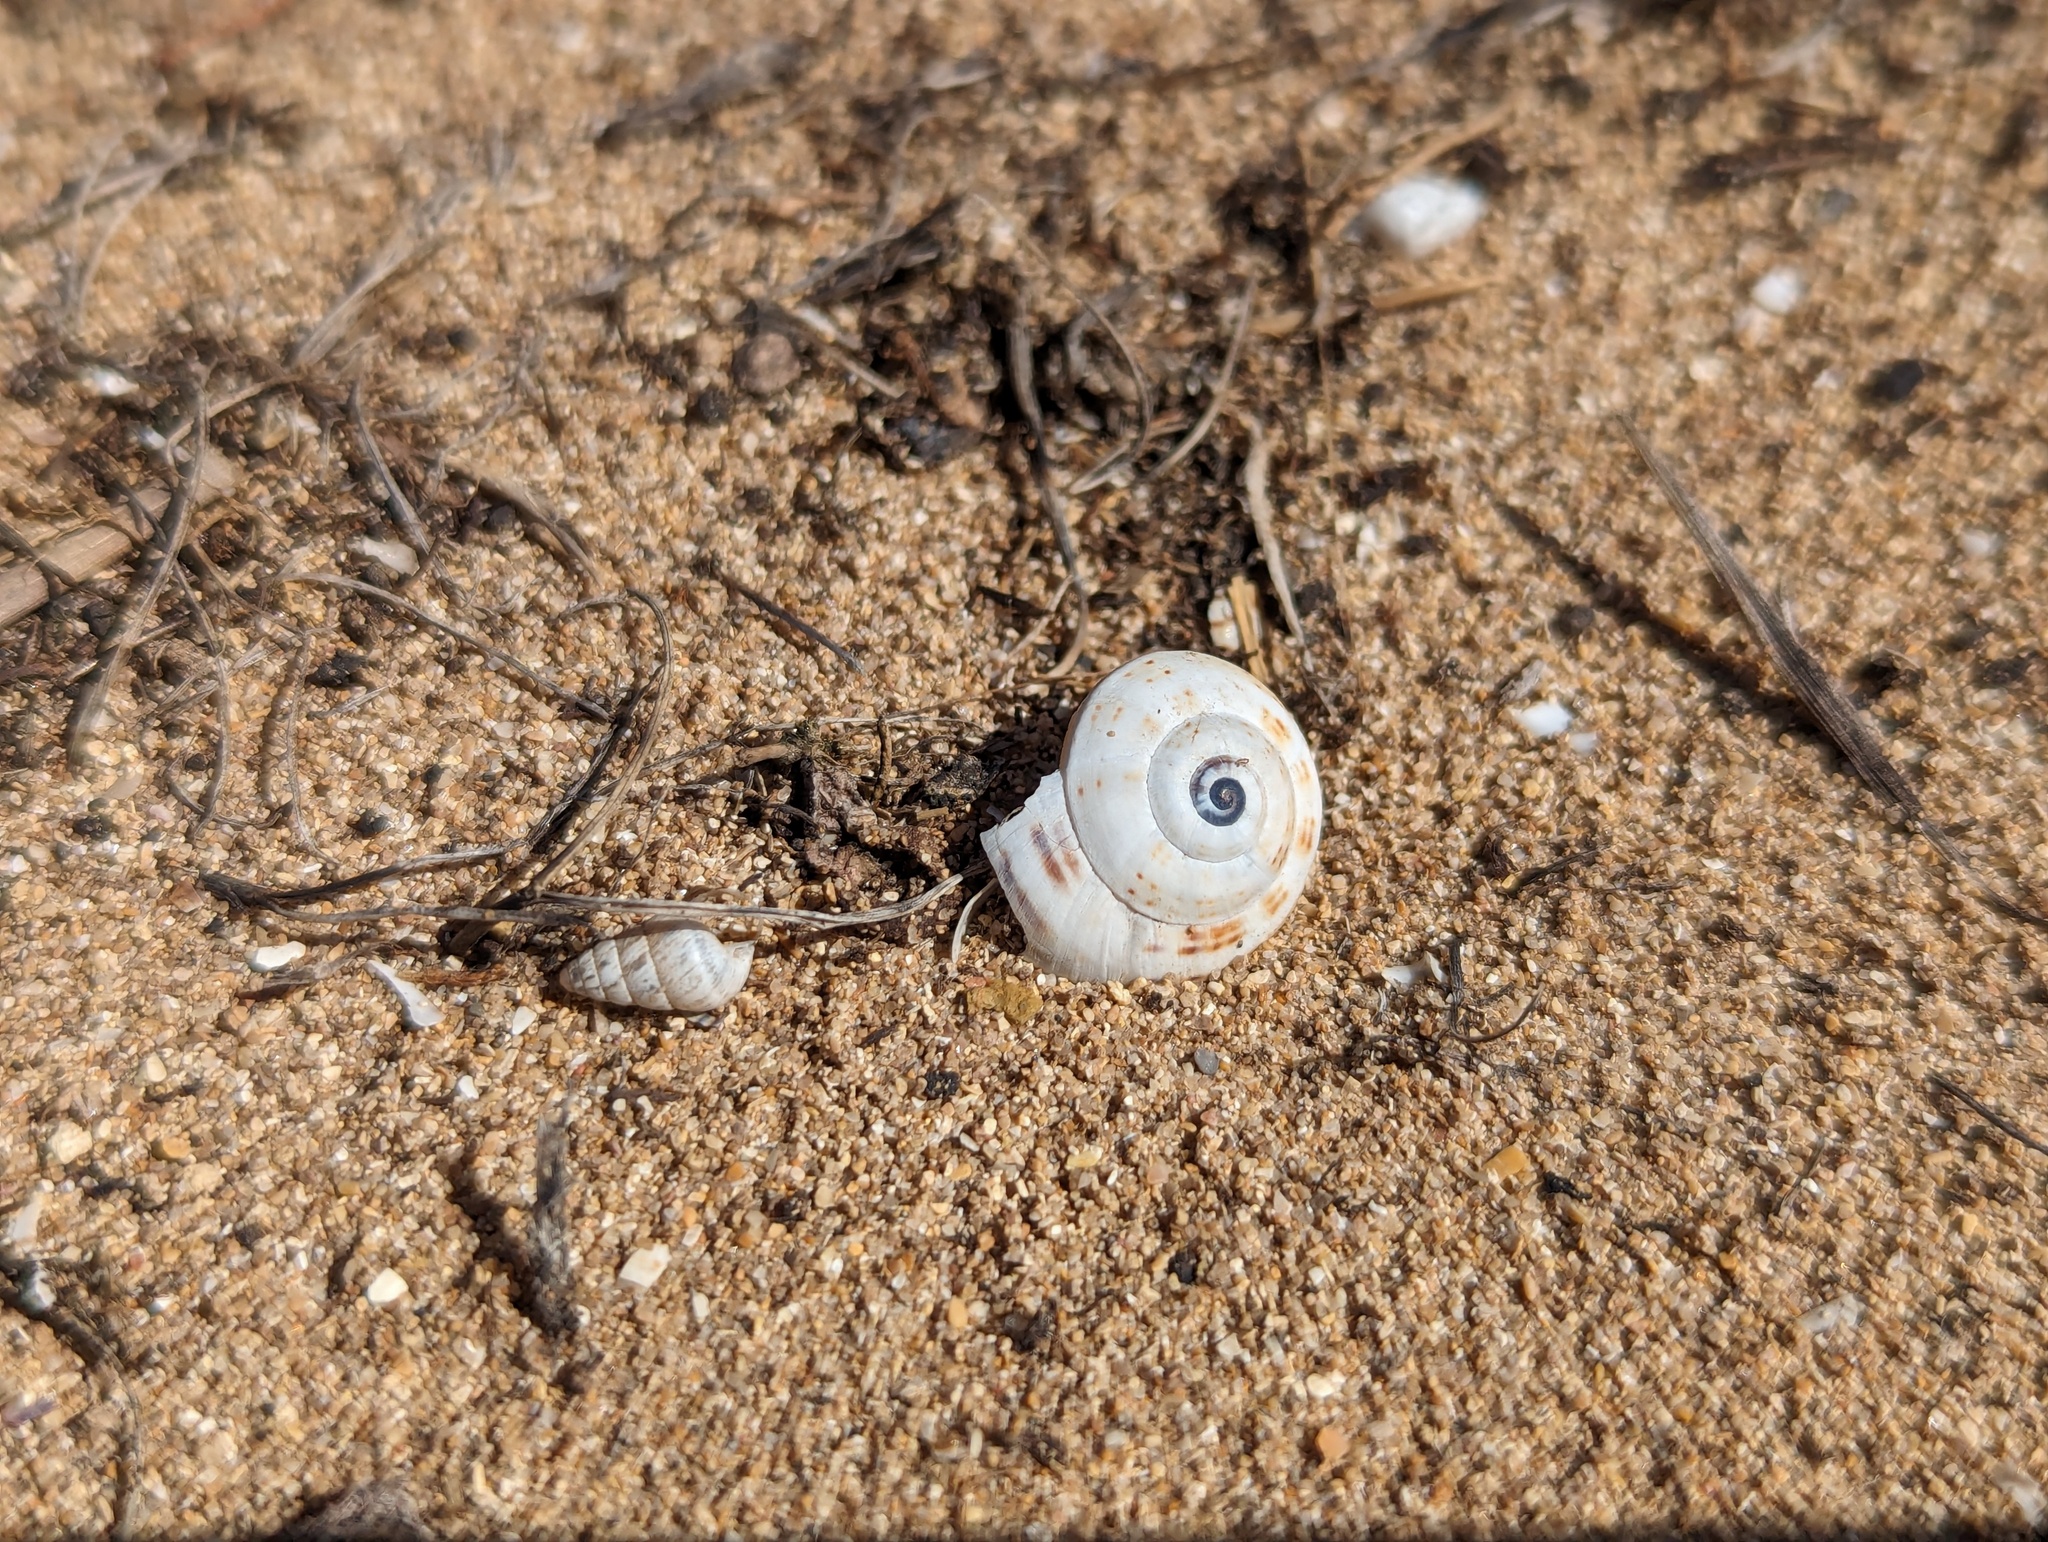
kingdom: Animalia
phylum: Mollusca
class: Gastropoda
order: Stylommatophora
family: Helicidae
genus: Theba
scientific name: Theba pisana
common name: White snail
